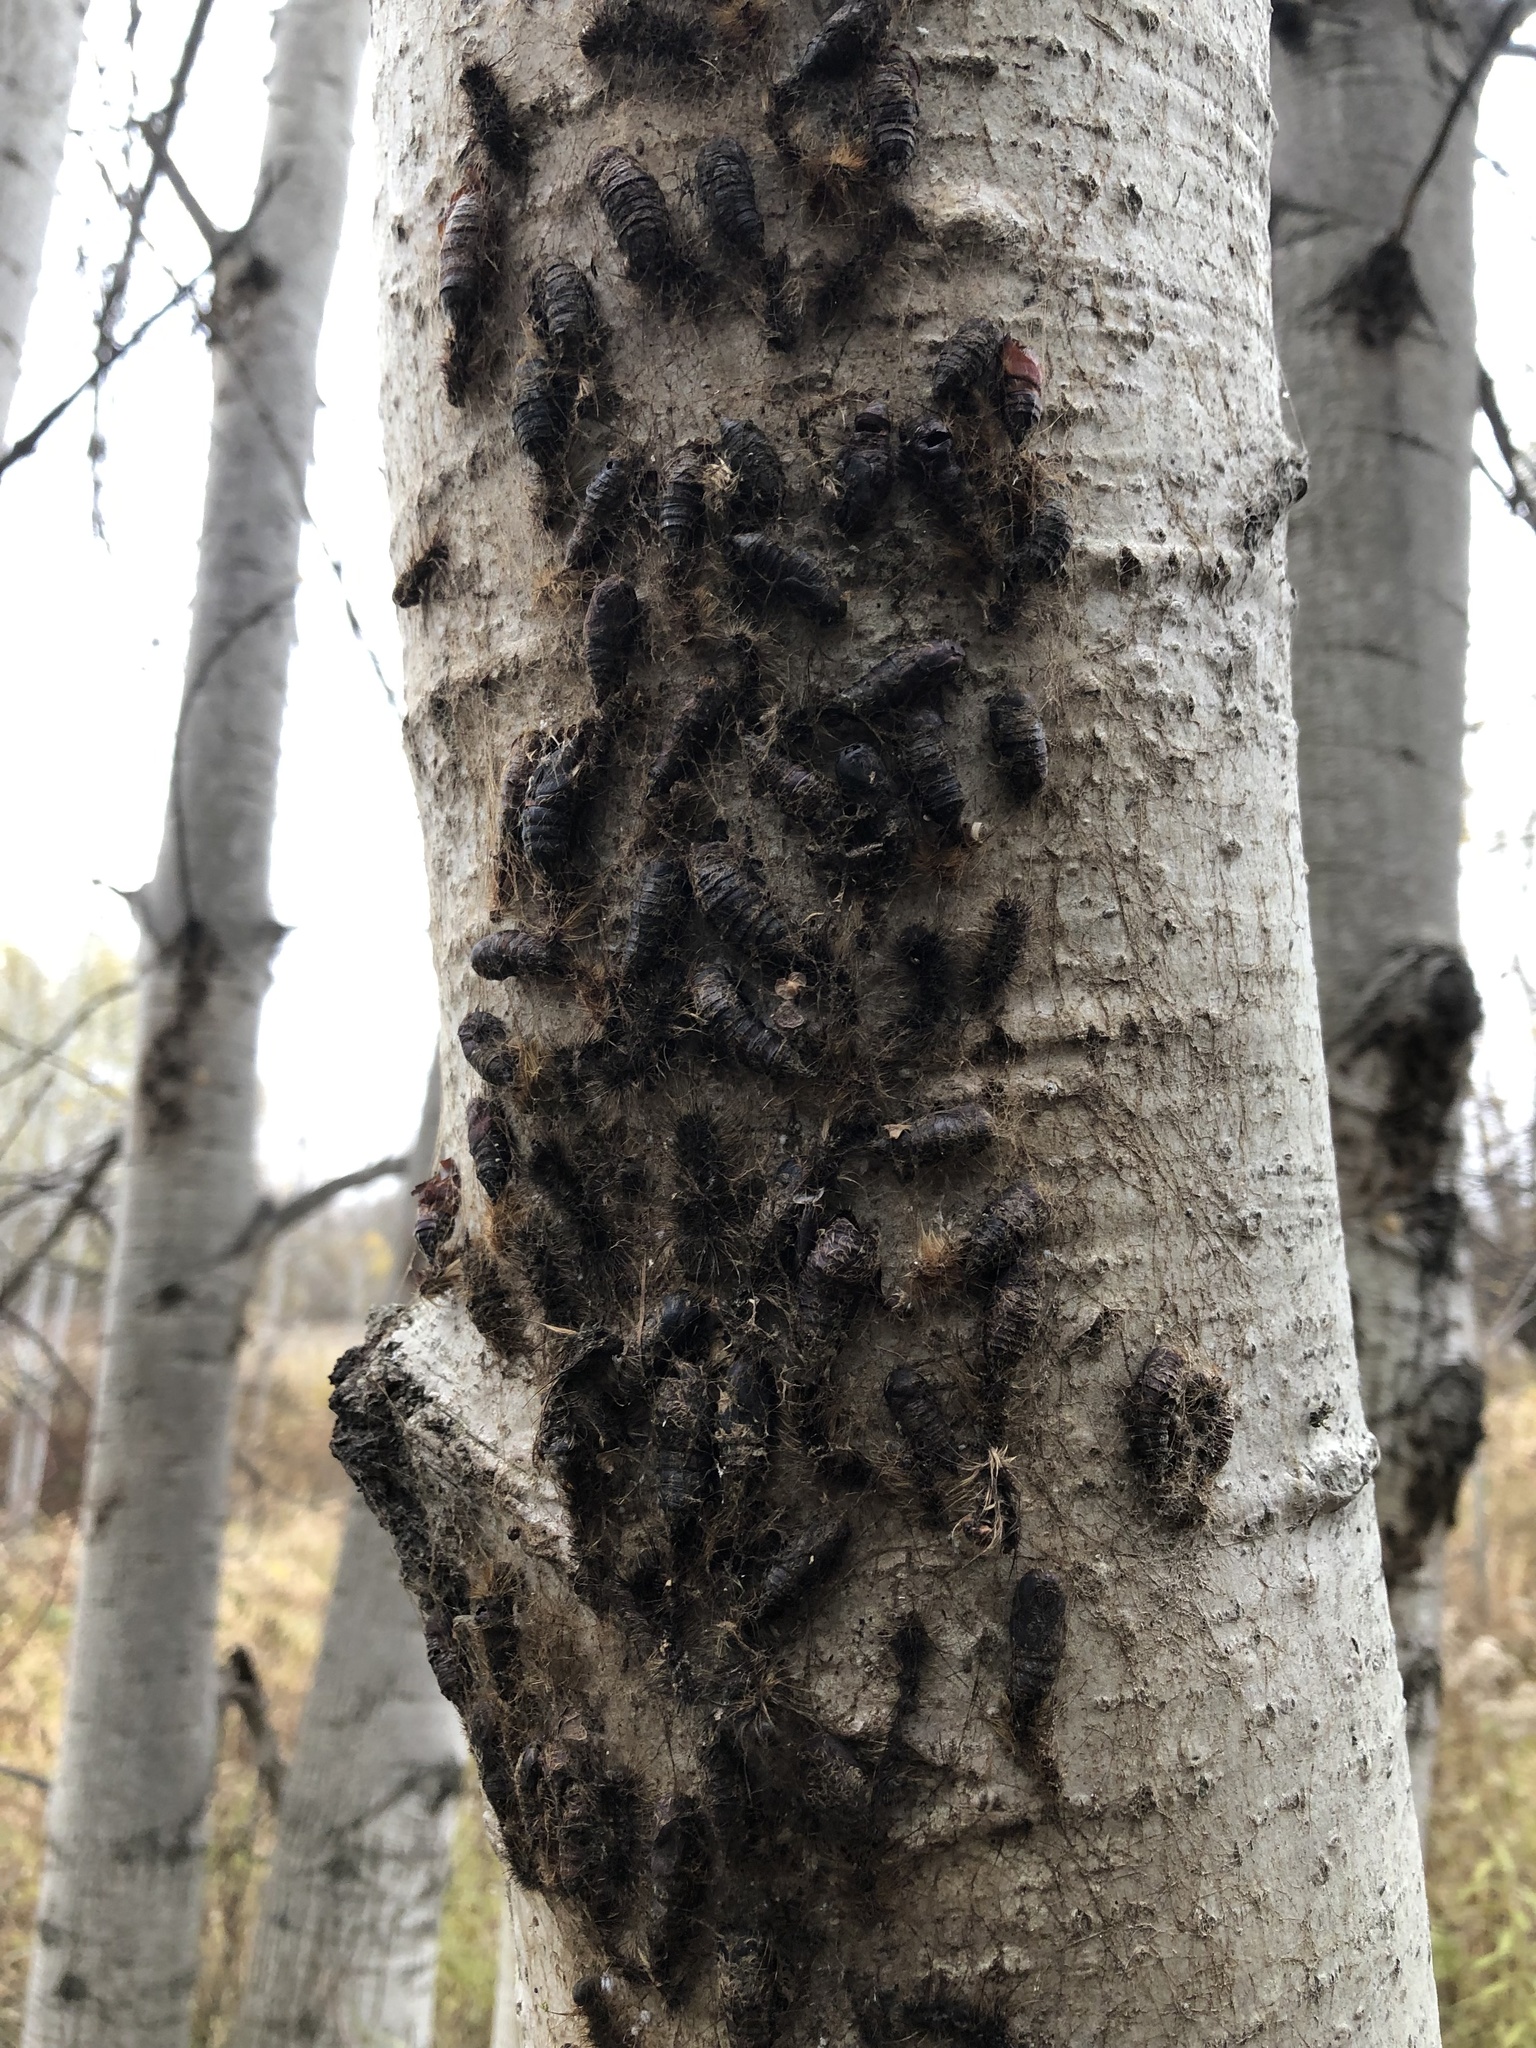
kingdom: Animalia
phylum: Arthropoda
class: Insecta
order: Lepidoptera
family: Erebidae
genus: Lymantria
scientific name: Lymantria dispar
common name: Gypsy moth
